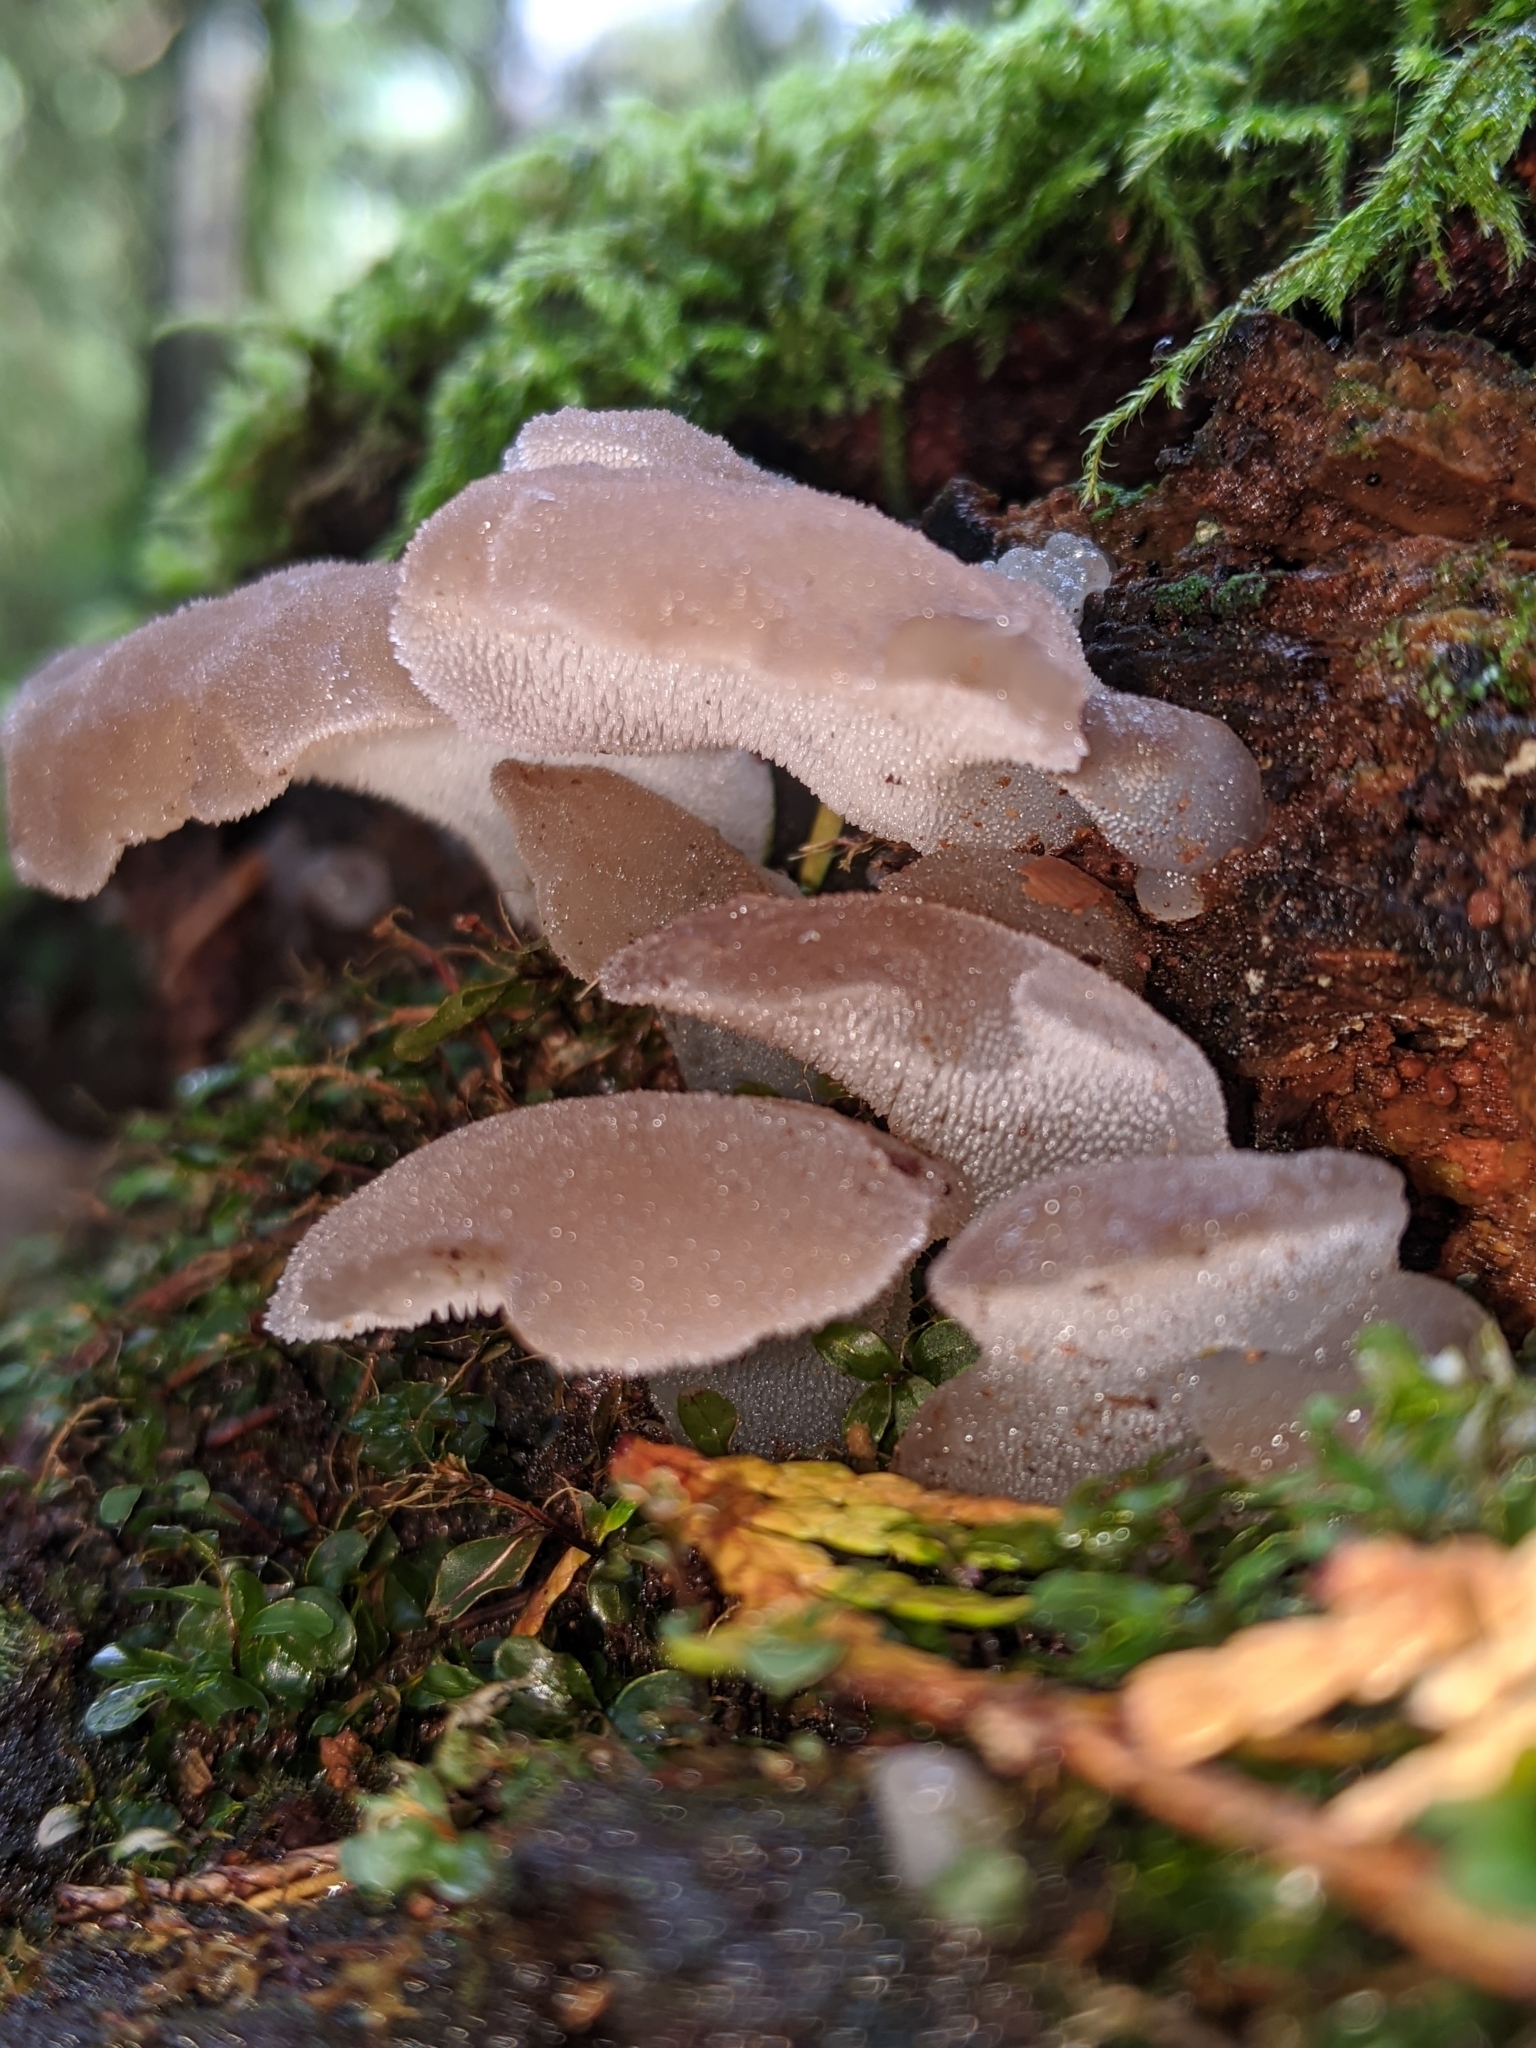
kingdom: Fungi
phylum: Basidiomycota
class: Agaricomycetes
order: Auriculariales
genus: Pseudohydnum
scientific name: Pseudohydnum gelatinosum
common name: Jelly tongue
